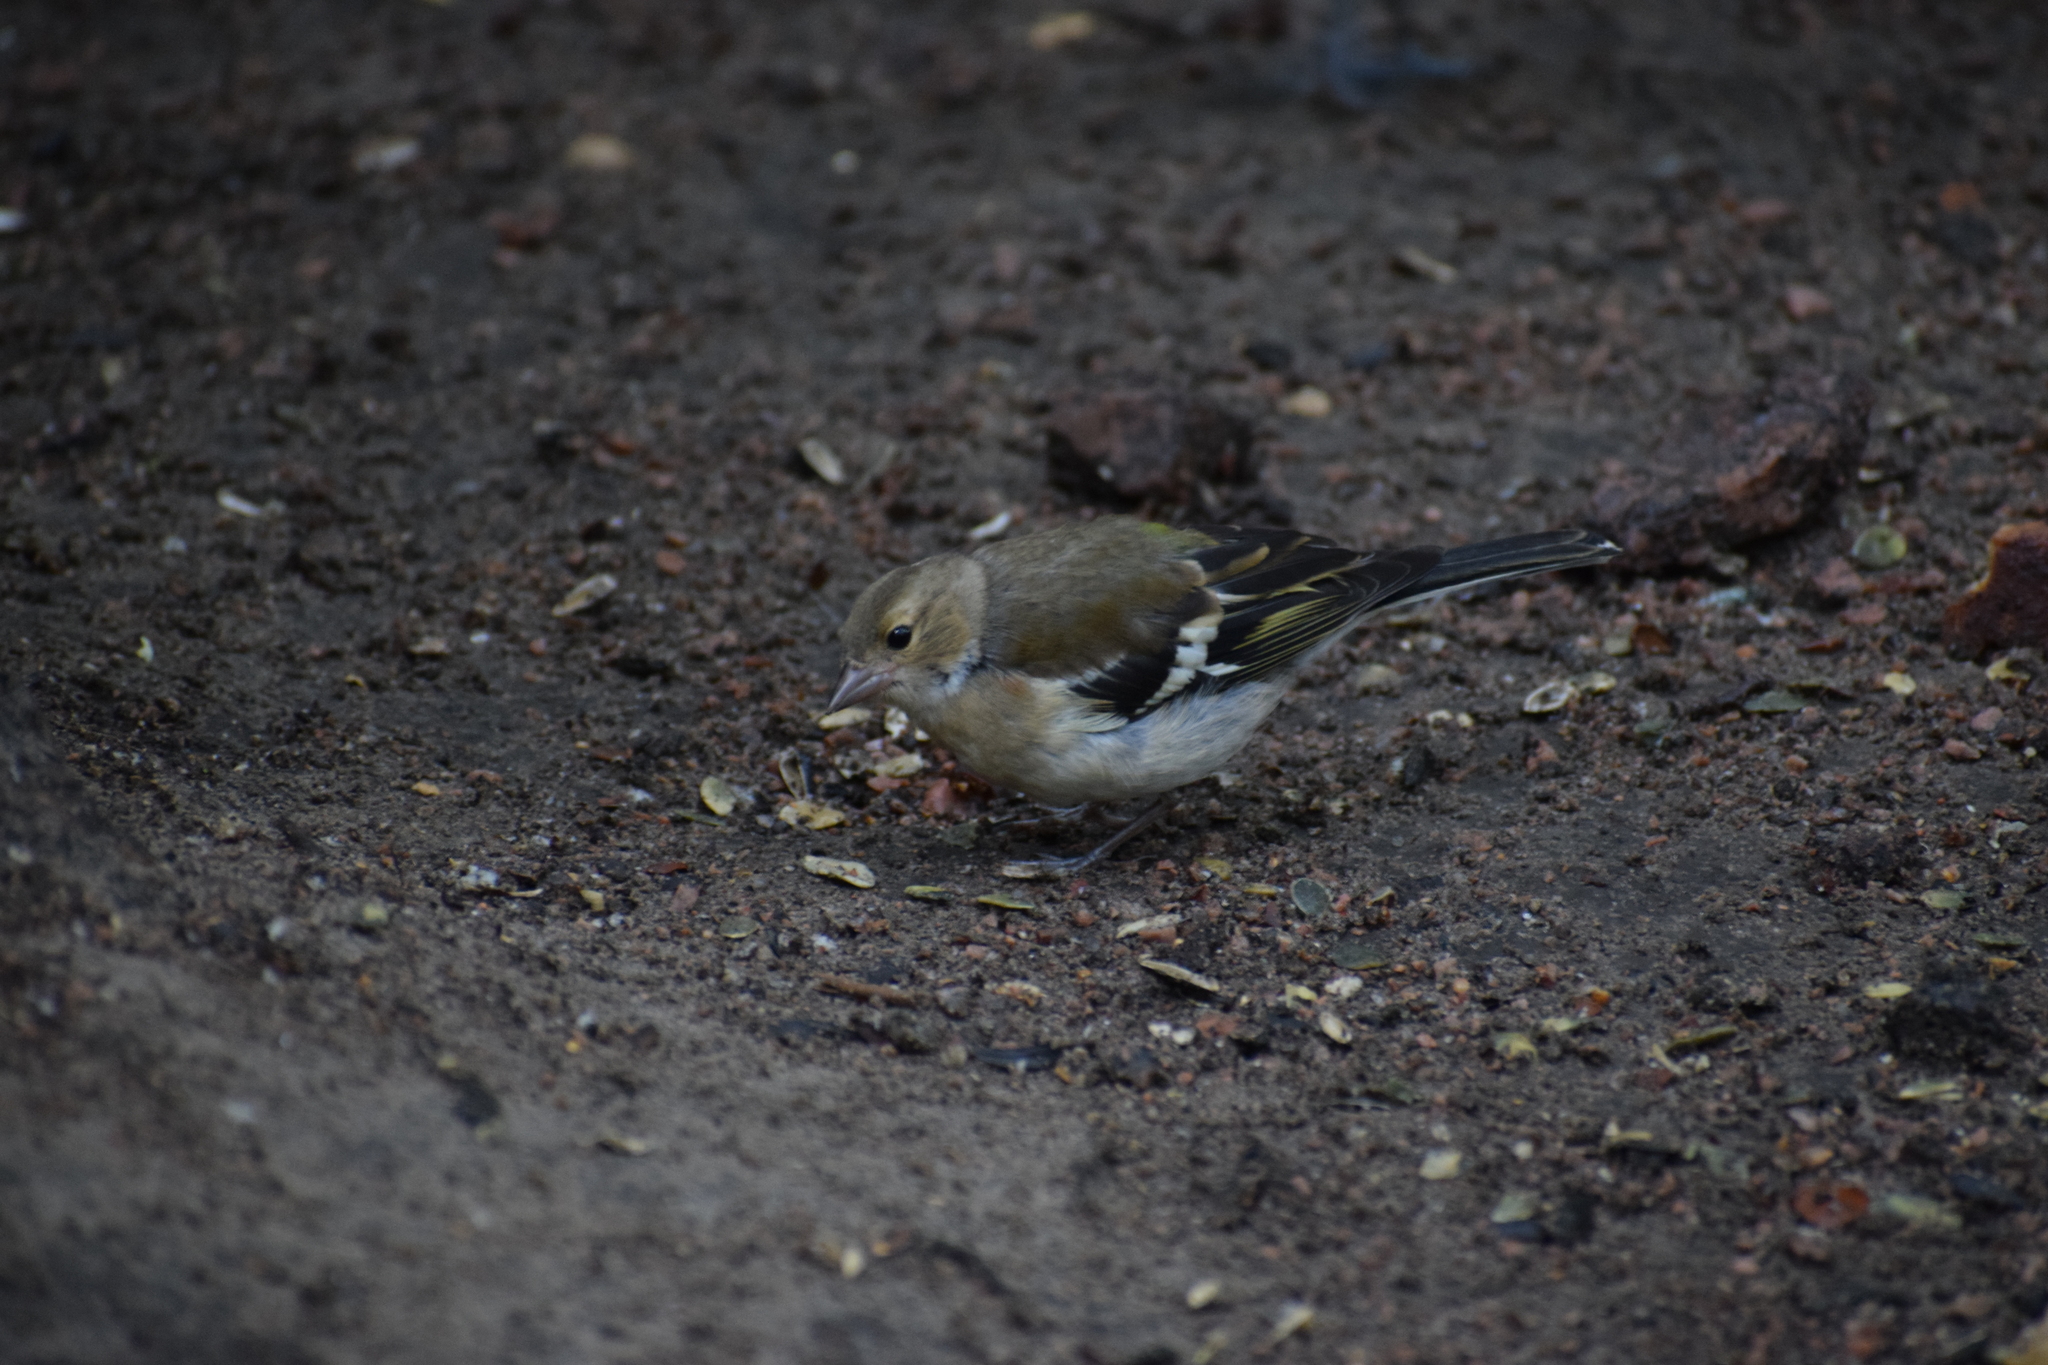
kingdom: Animalia
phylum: Chordata
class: Aves
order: Passeriformes
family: Fringillidae
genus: Fringilla
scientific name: Fringilla coelebs
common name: Common chaffinch
